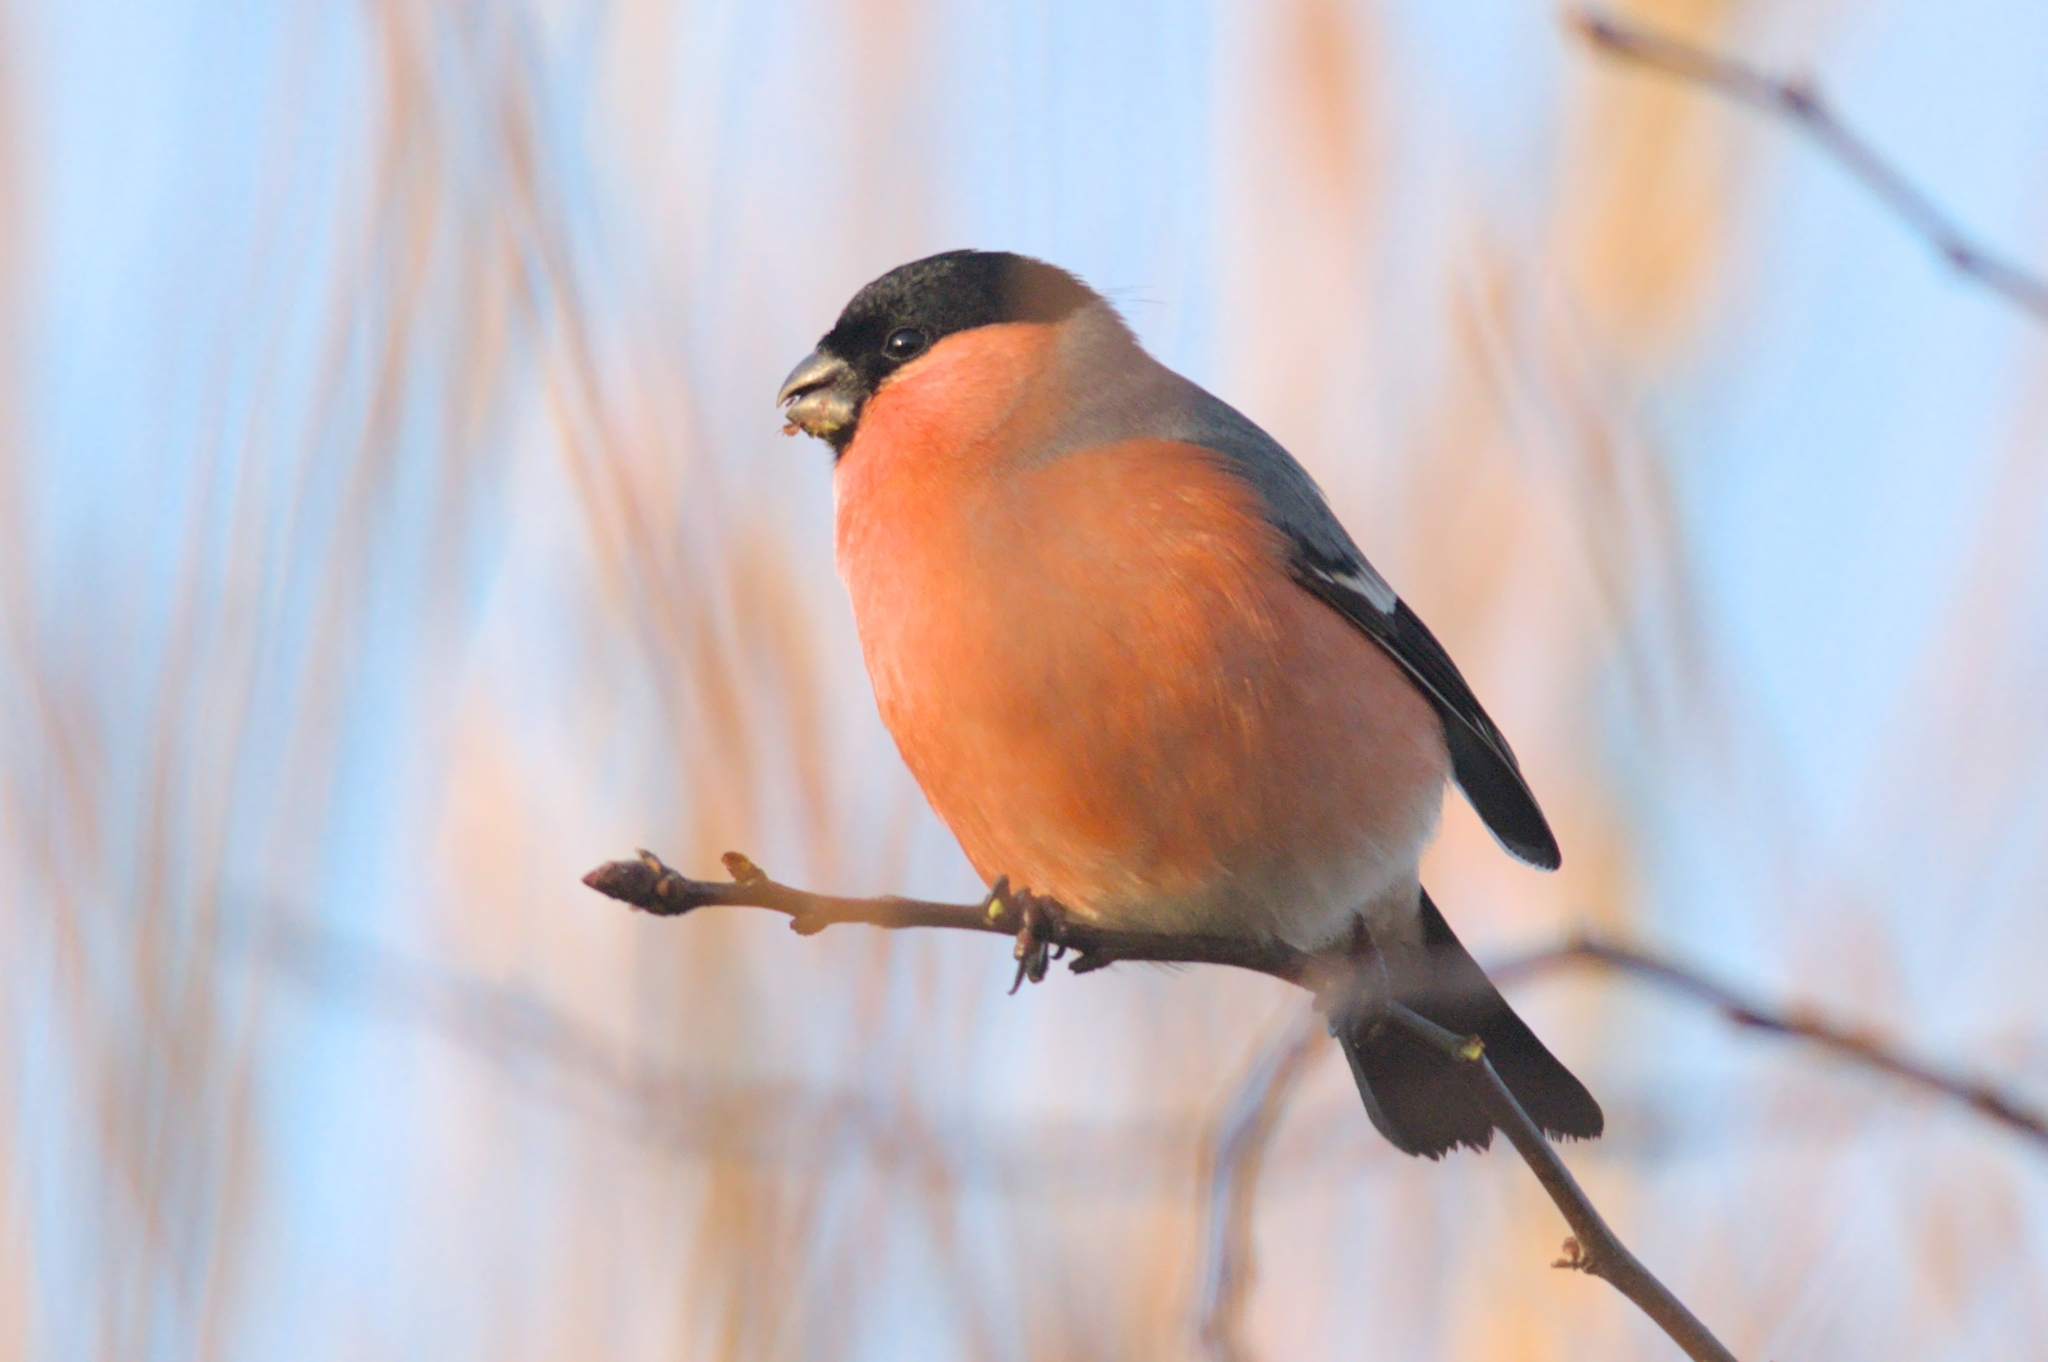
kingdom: Animalia
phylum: Chordata
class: Aves
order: Passeriformes
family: Fringillidae
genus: Pyrrhula
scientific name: Pyrrhula pyrrhula
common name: Eurasian bullfinch
